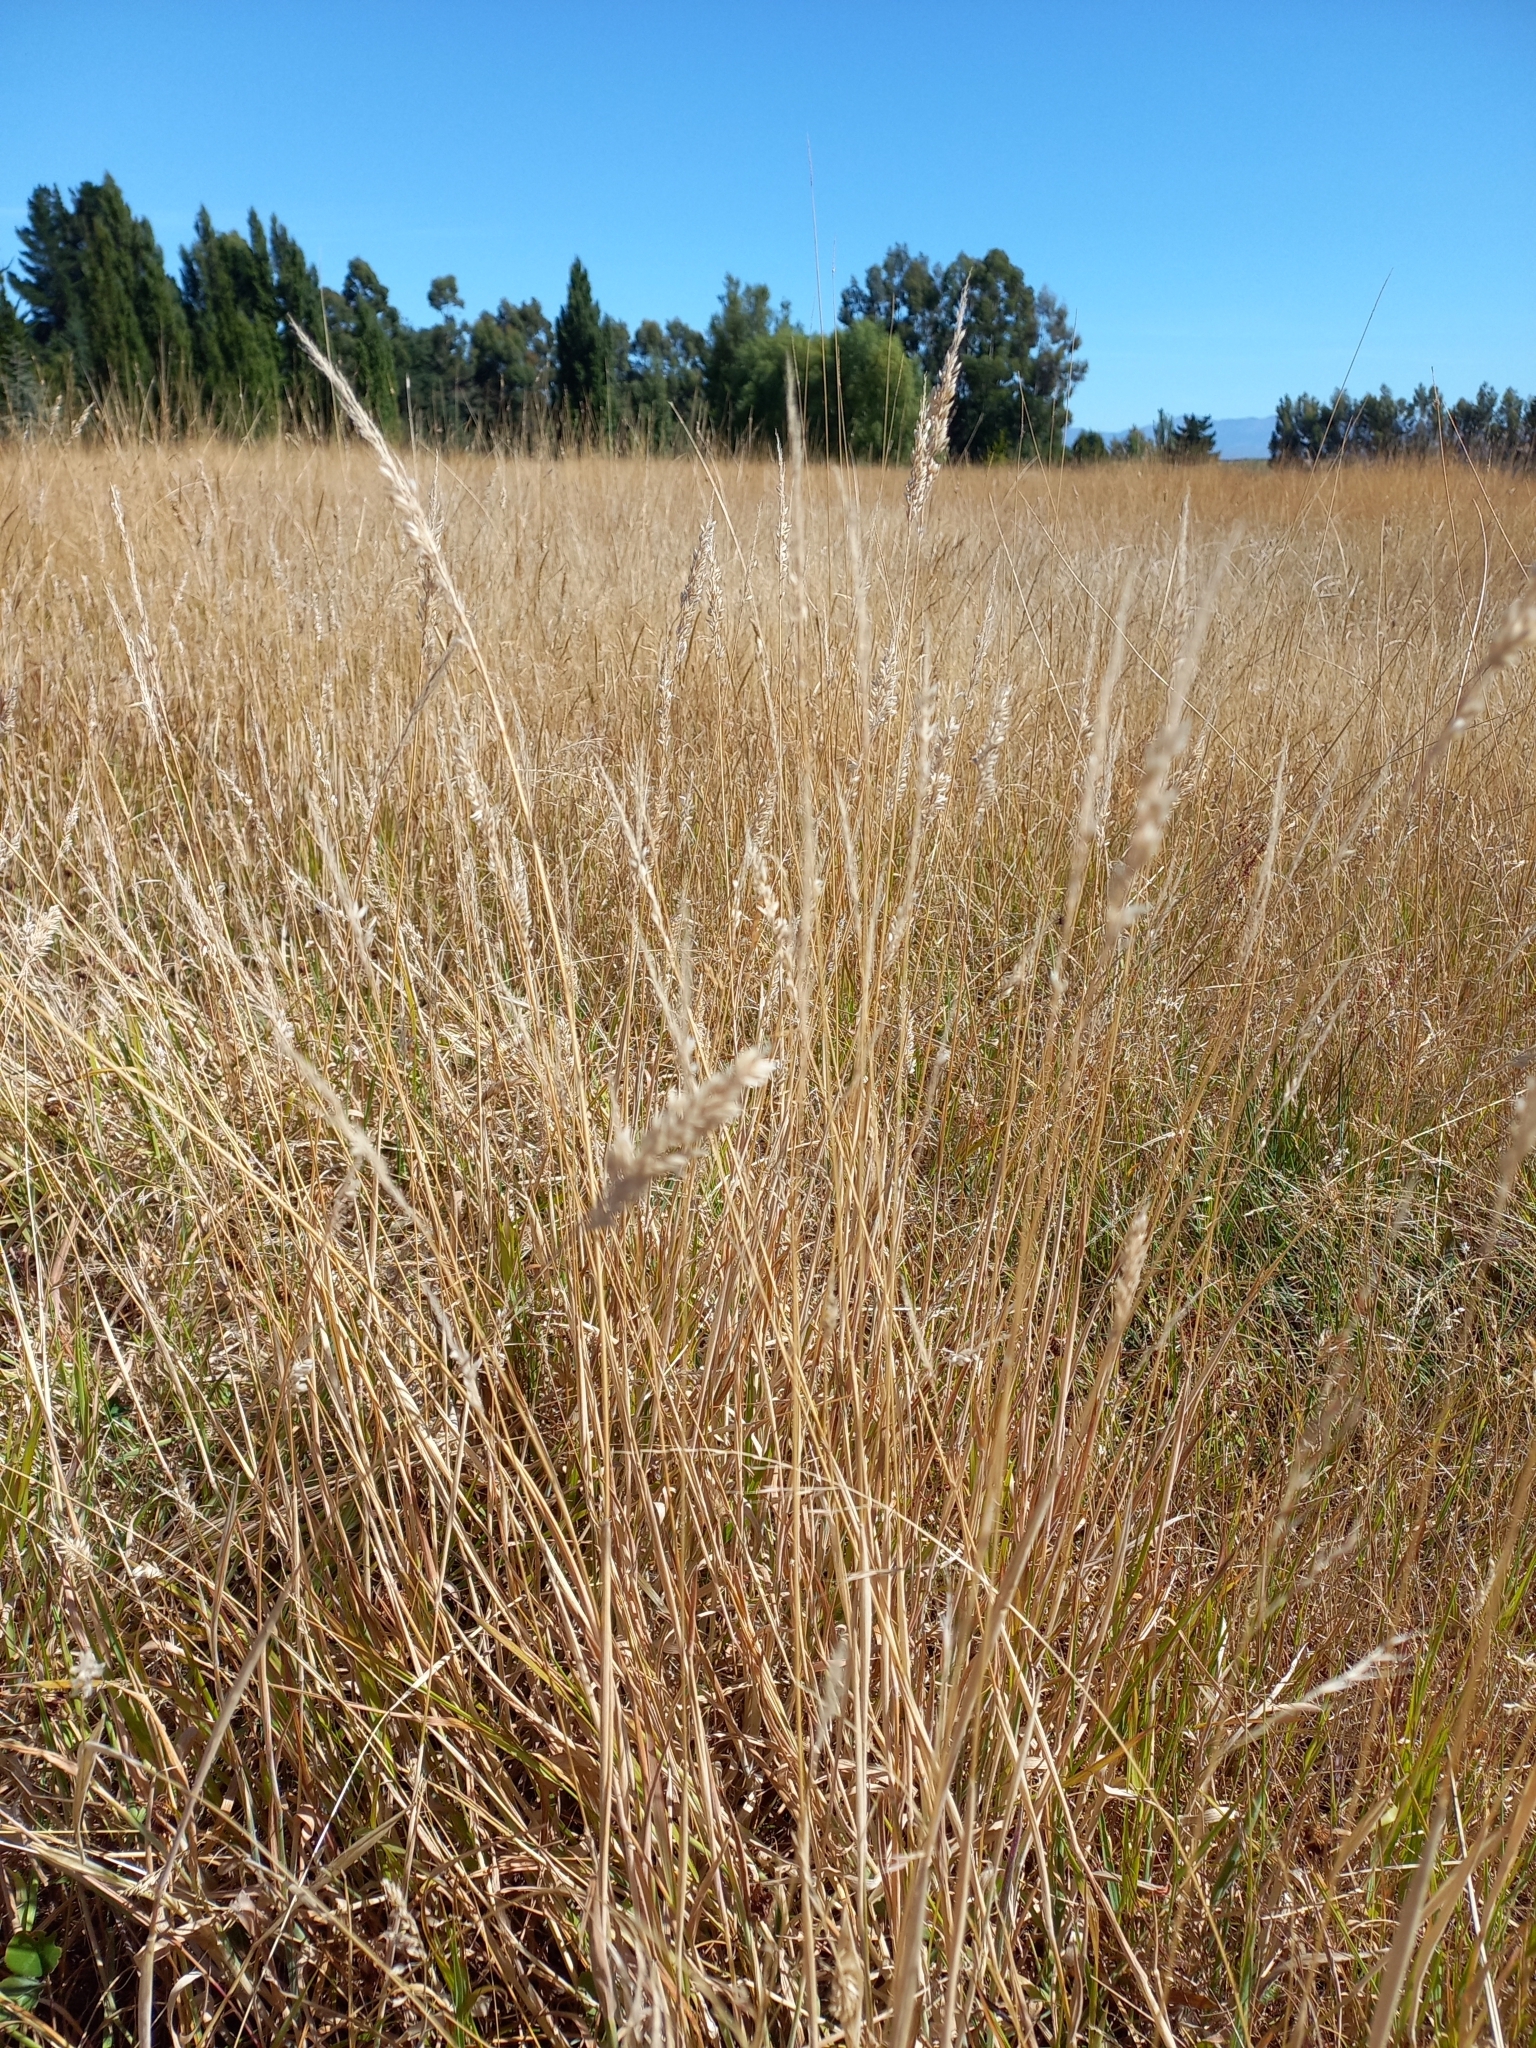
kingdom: Plantae
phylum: Tracheophyta
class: Liliopsida
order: Poales
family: Poaceae
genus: Holcus
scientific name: Holcus lanatus
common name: Yorkshire-fog
